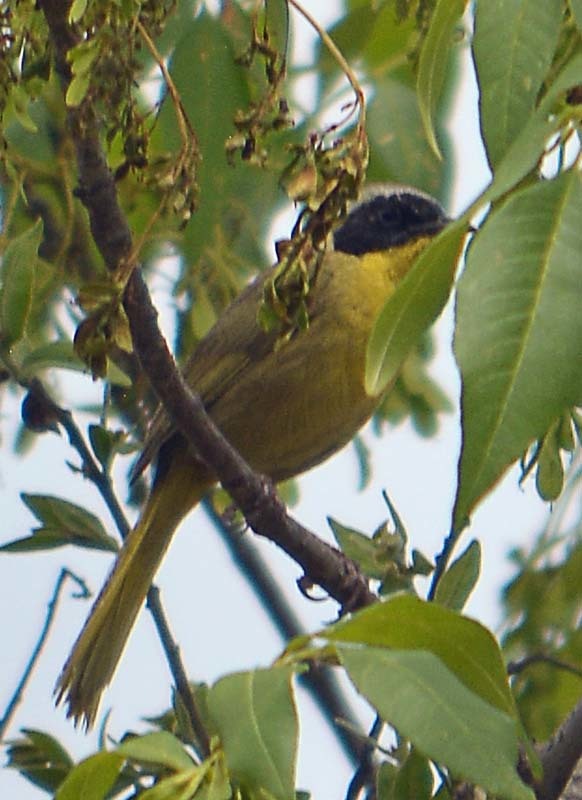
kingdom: Animalia
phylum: Chordata
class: Aves
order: Passeriformes
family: Parulidae
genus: Geothlypis
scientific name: Geothlypis trichas
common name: Common yellowthroat
